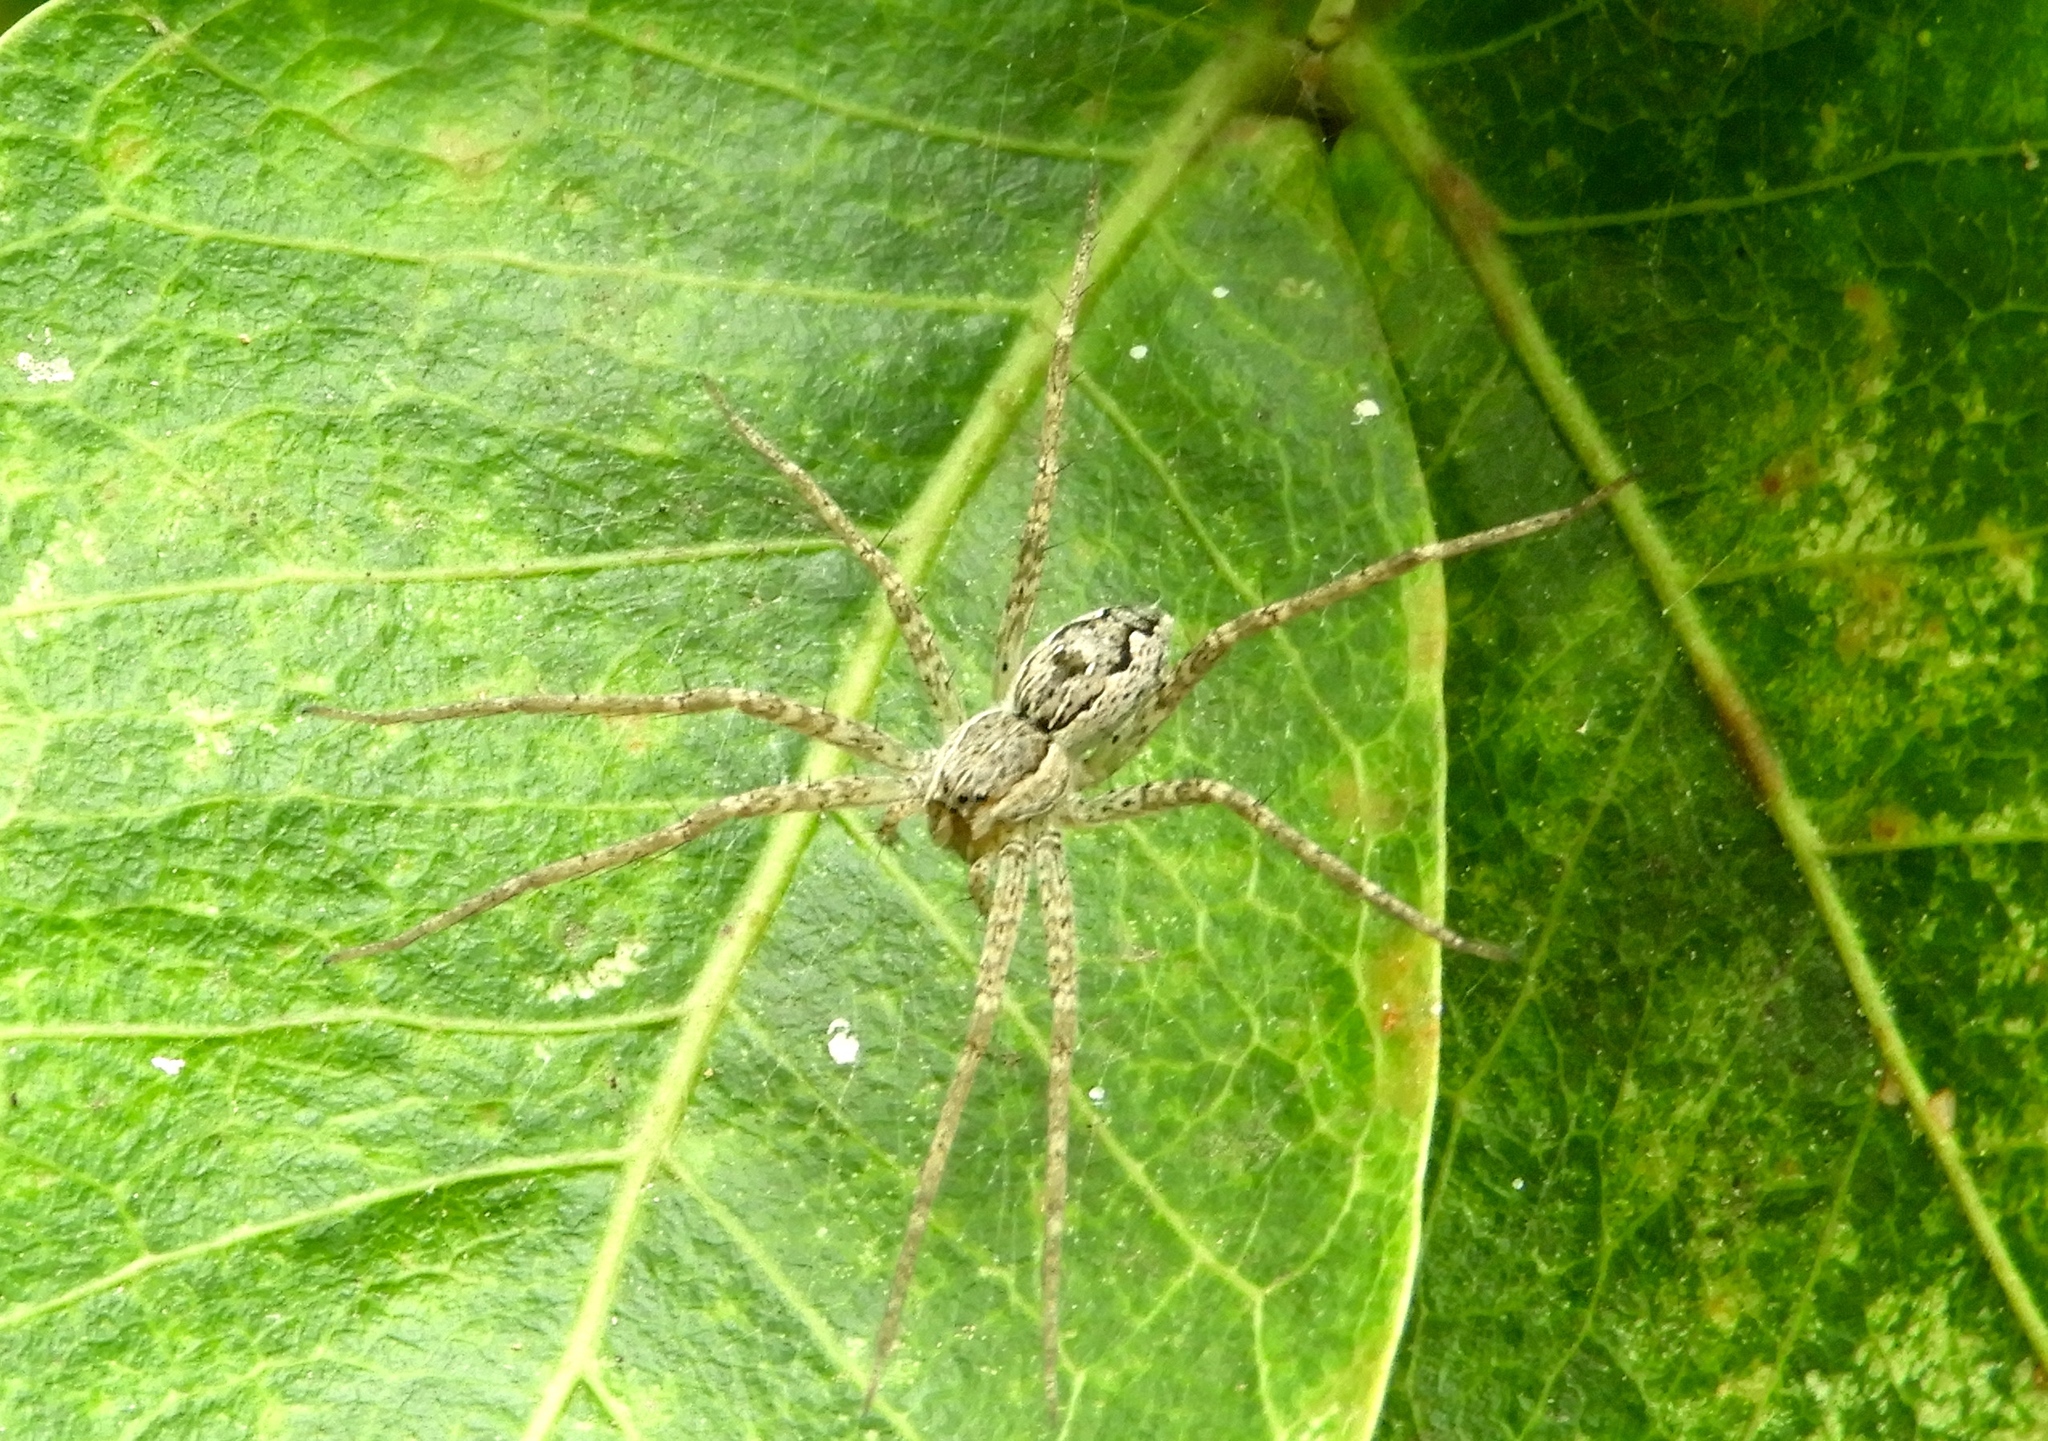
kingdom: Animalia
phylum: Arthropoda
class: Arachnida
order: Araneae
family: Pisauridae
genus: Tinus
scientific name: Tinus
